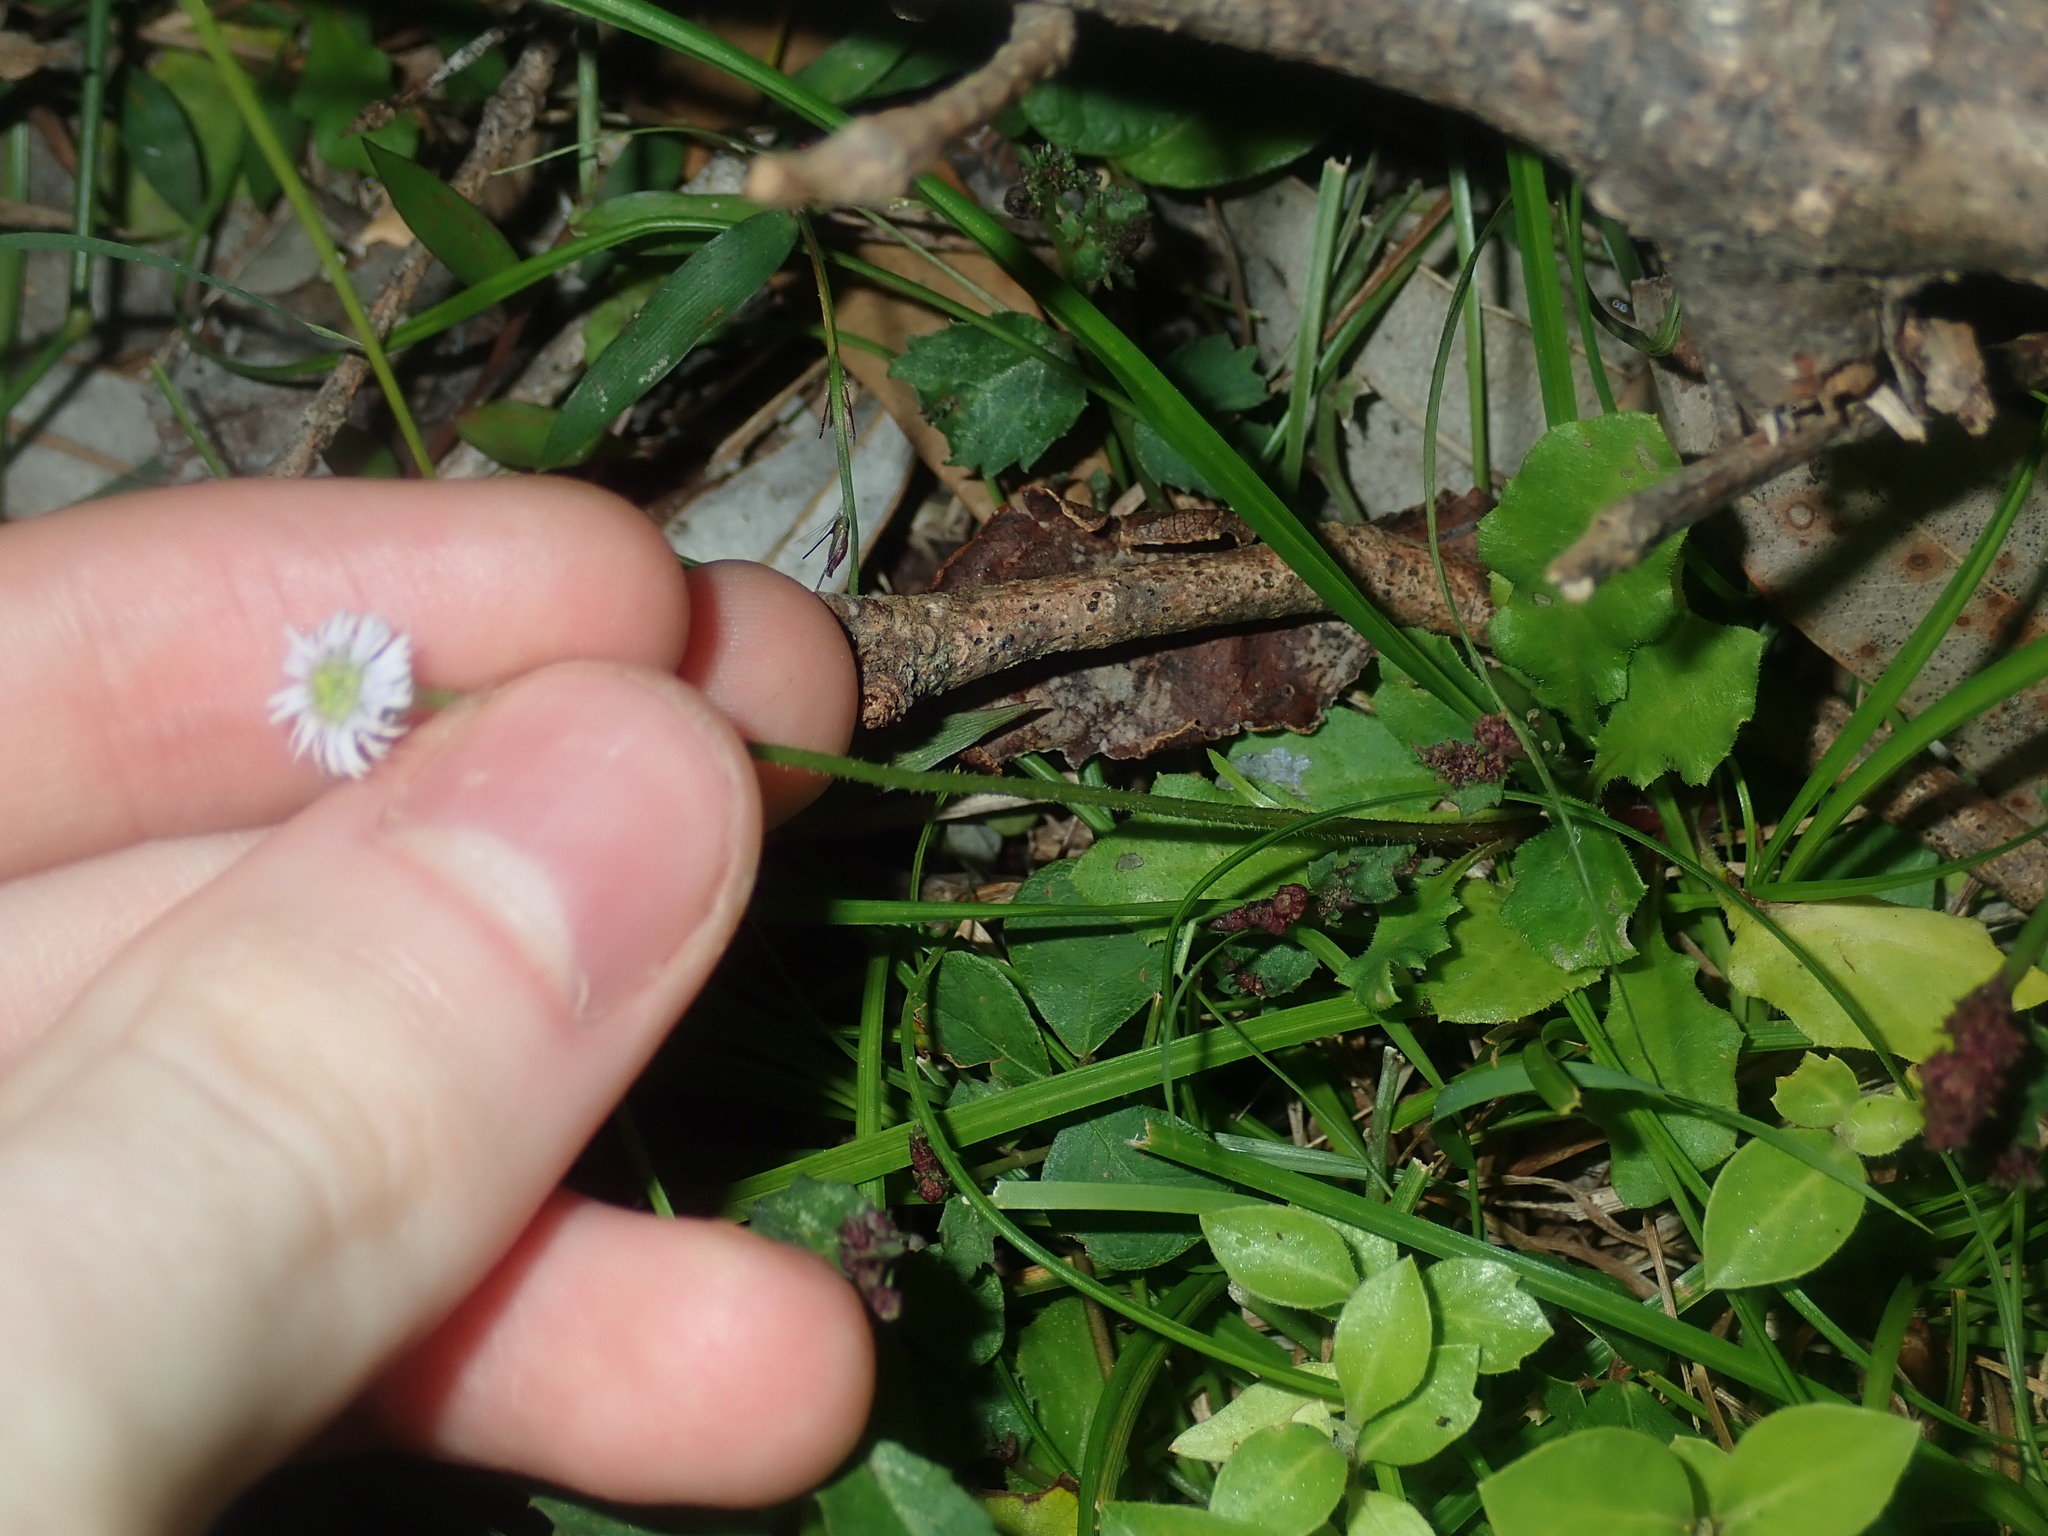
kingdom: Plantae
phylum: Tracheophyta
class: Magnoliopsida
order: Asterales
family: Asteraceae
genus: Lagenophora
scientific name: Lagenophora sublyrata ter
